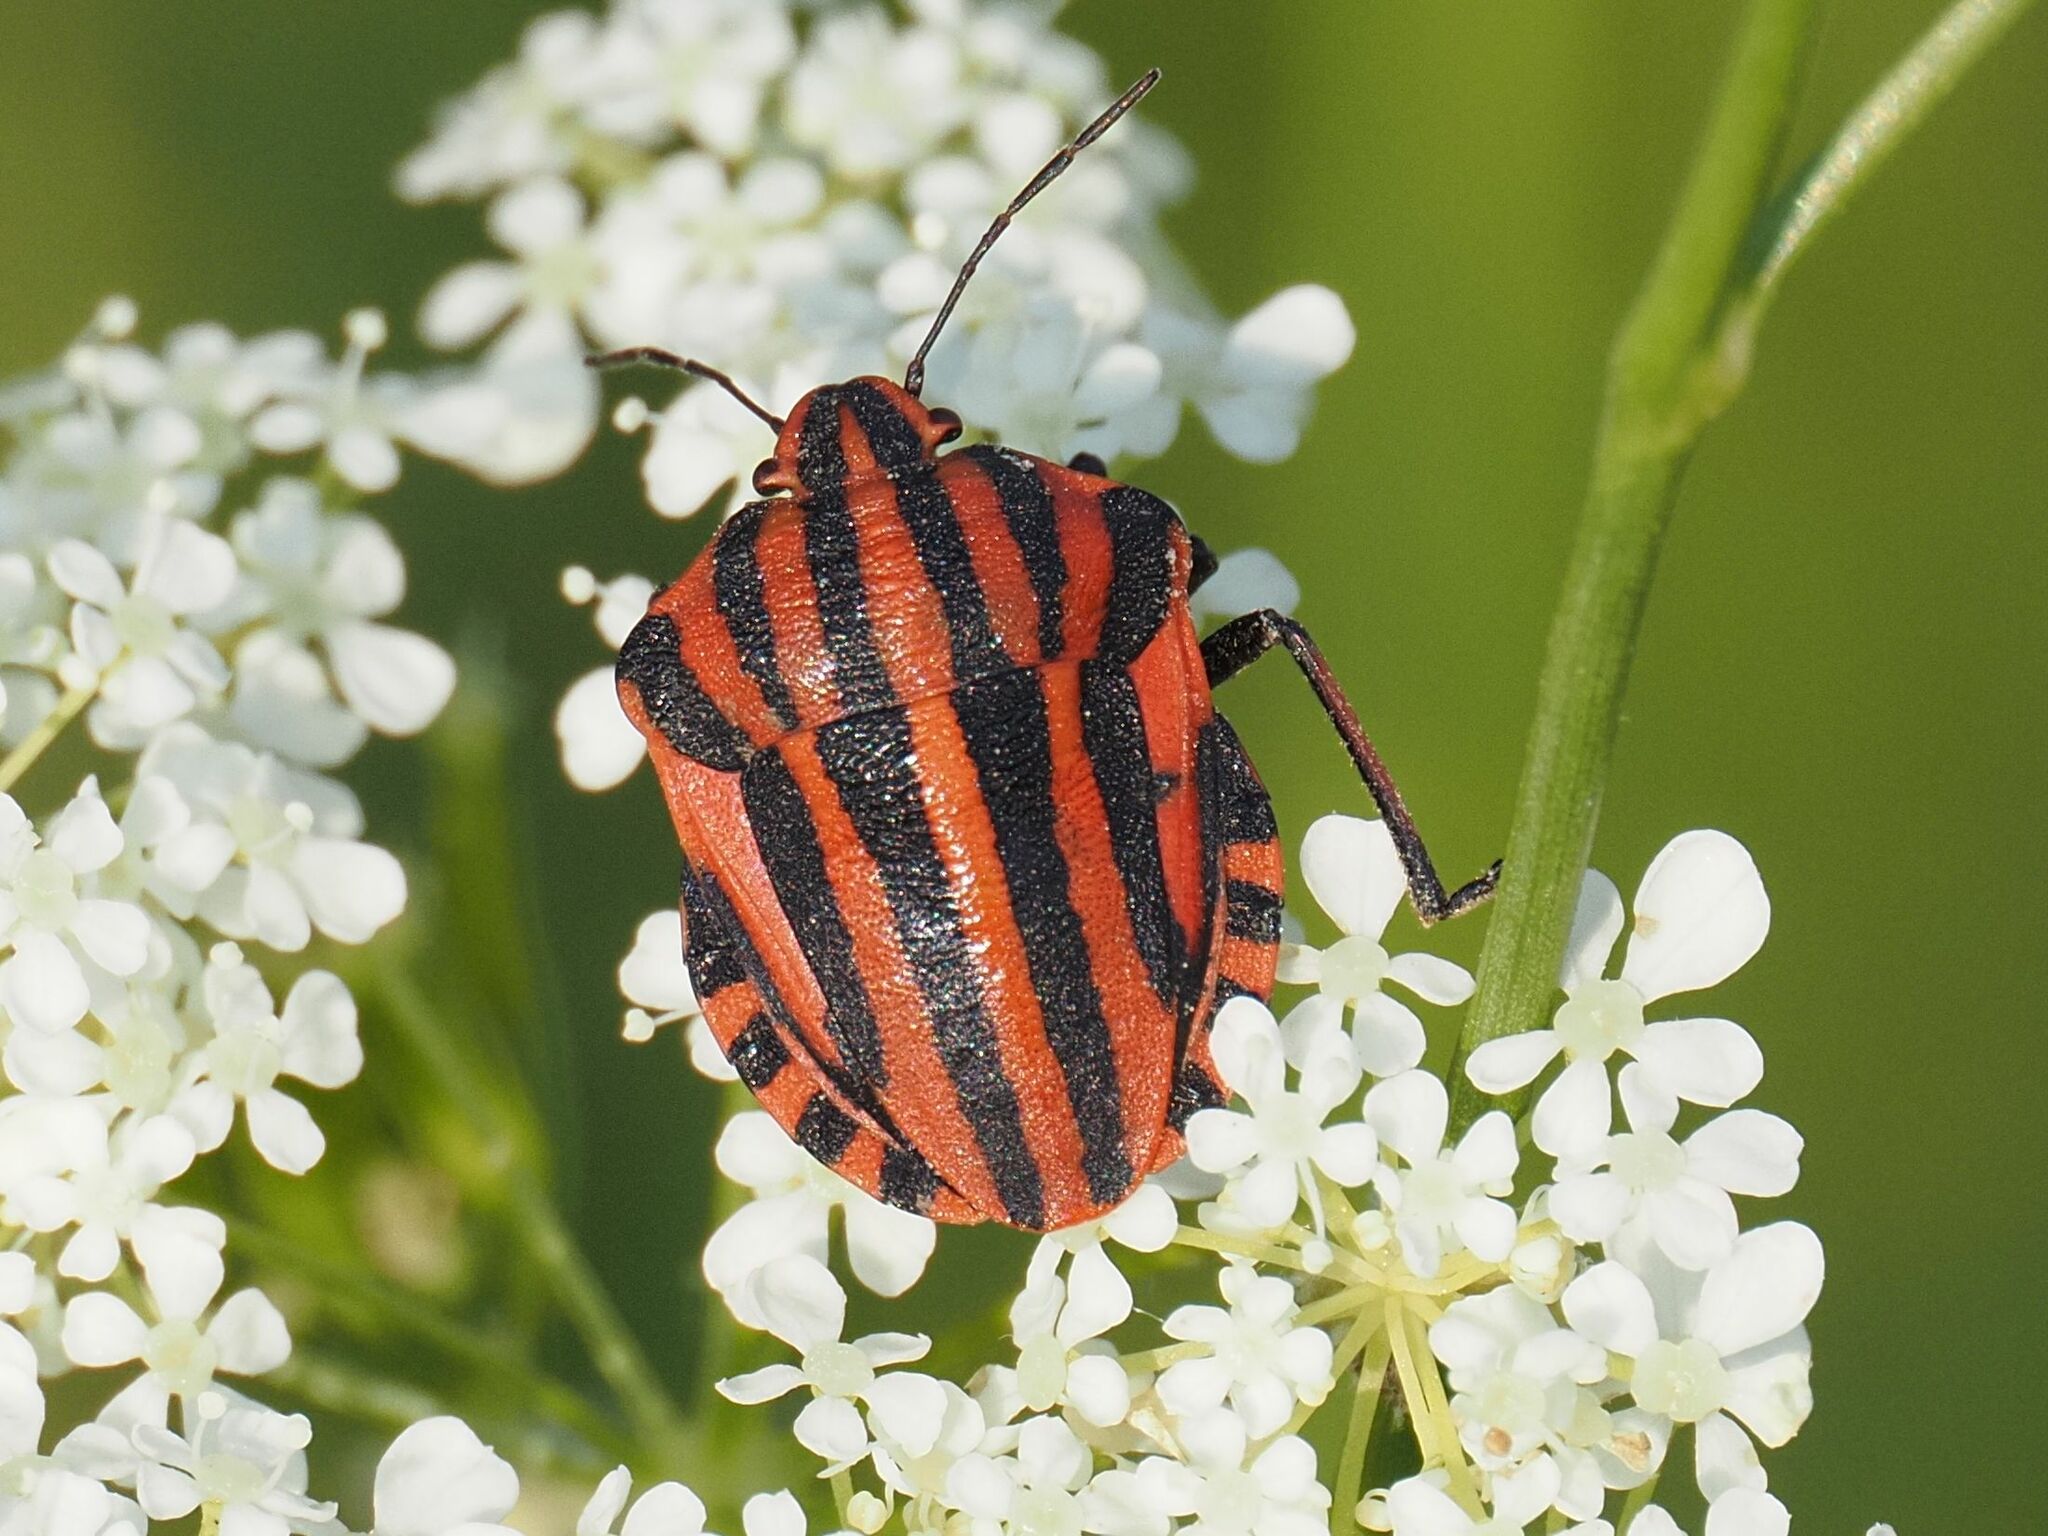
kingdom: Animalia
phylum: Arthropoda
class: Insecta
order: Hemiptera
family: Pentatomidae
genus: Graphosoma
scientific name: Graphosoma italicum
